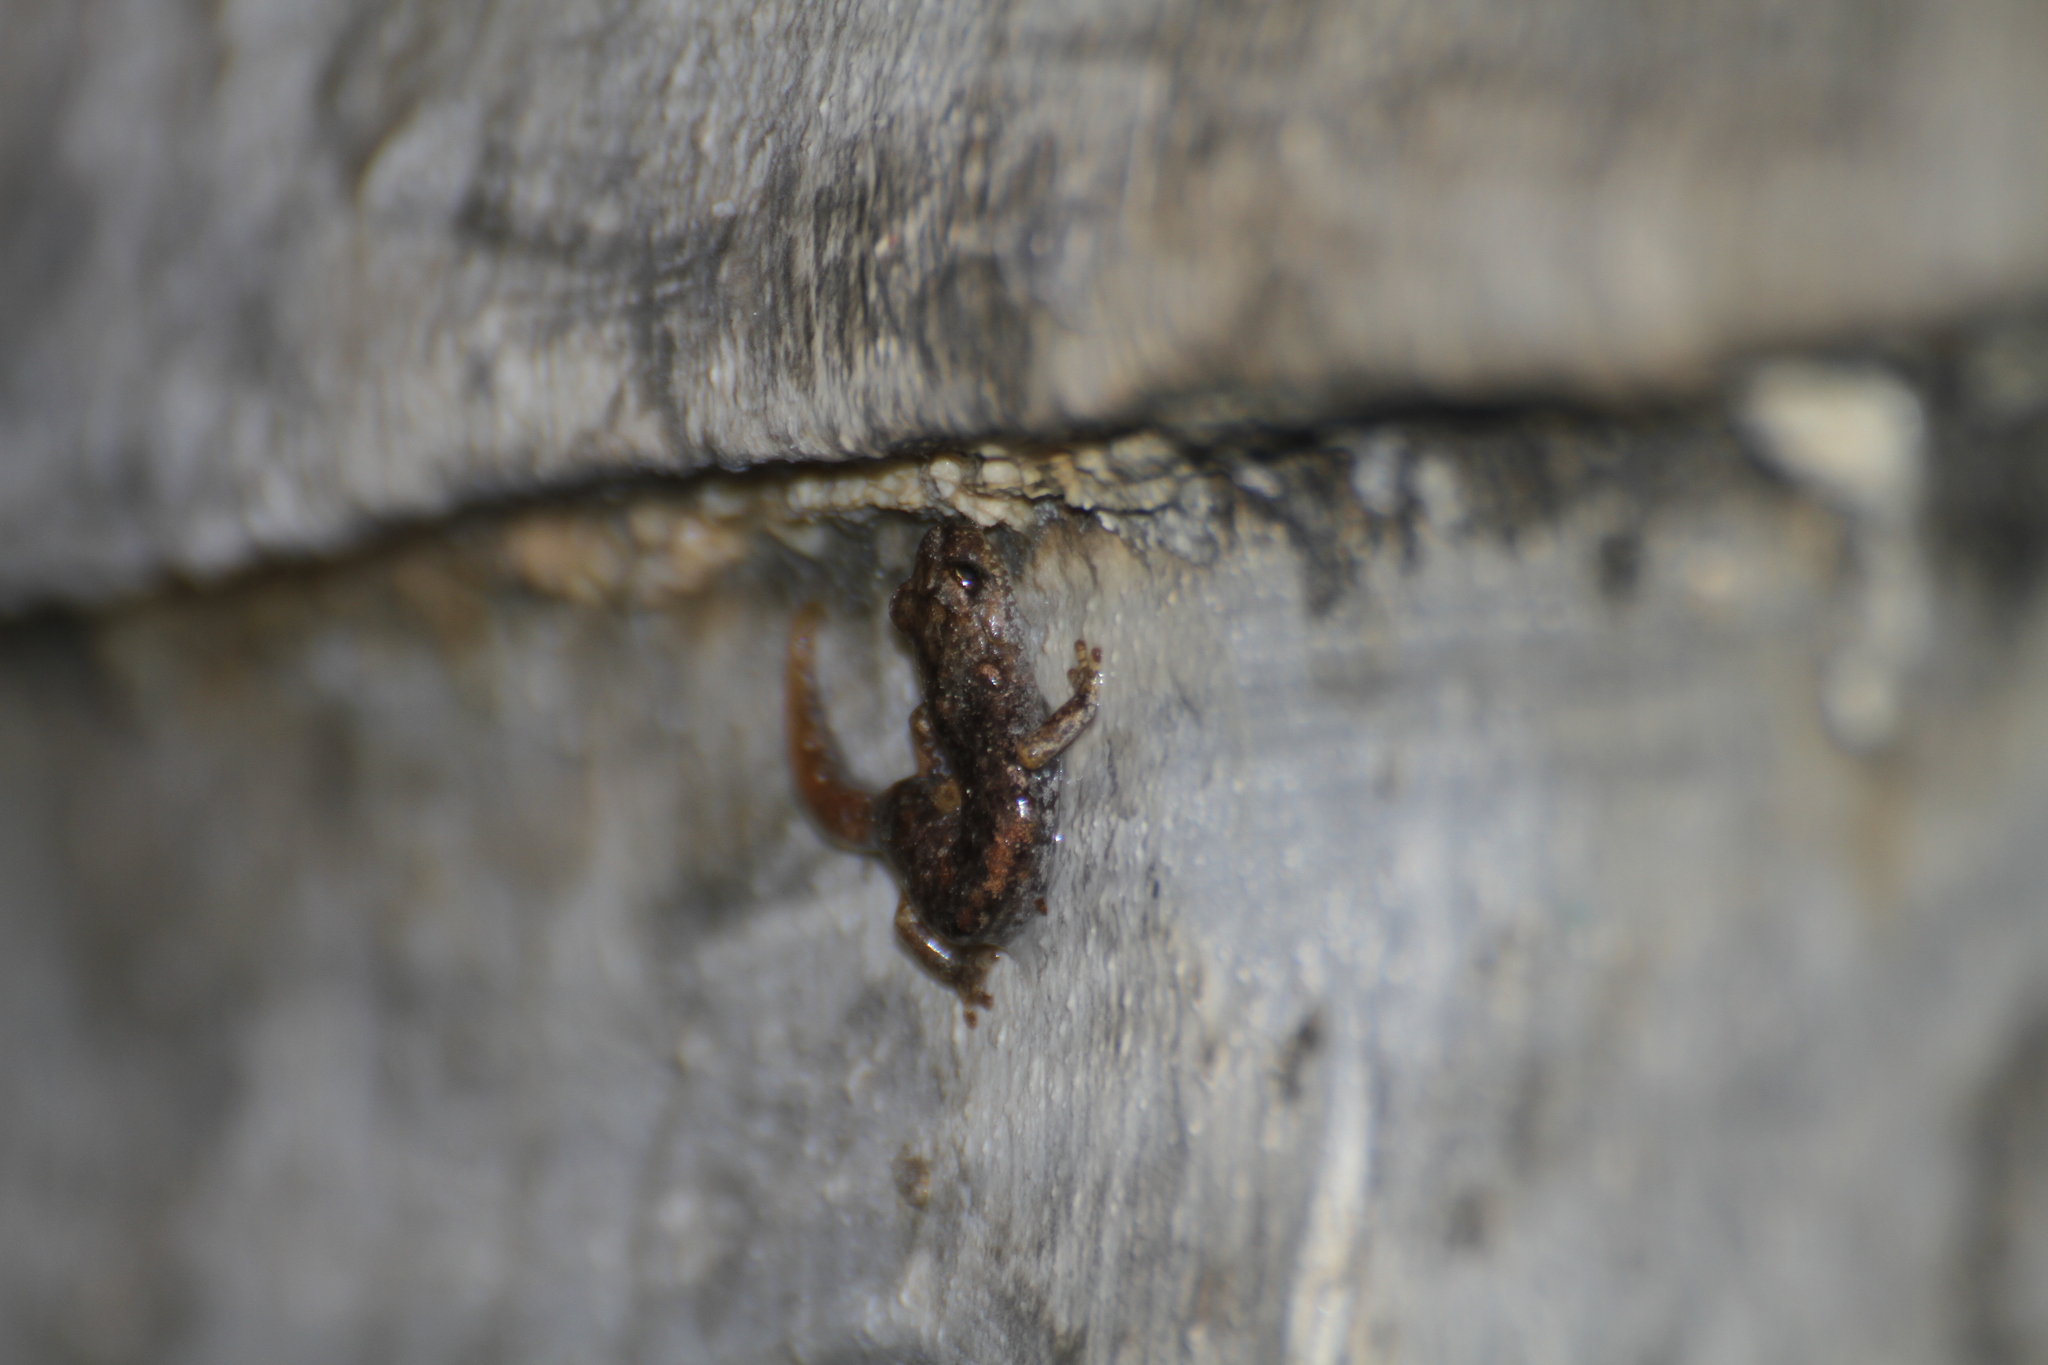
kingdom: Animalia
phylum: Chordata
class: Amphibia
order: Caudata
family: Plethodontidae
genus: Speleomantes
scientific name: Speleomantes strinatii
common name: French cave salamander
